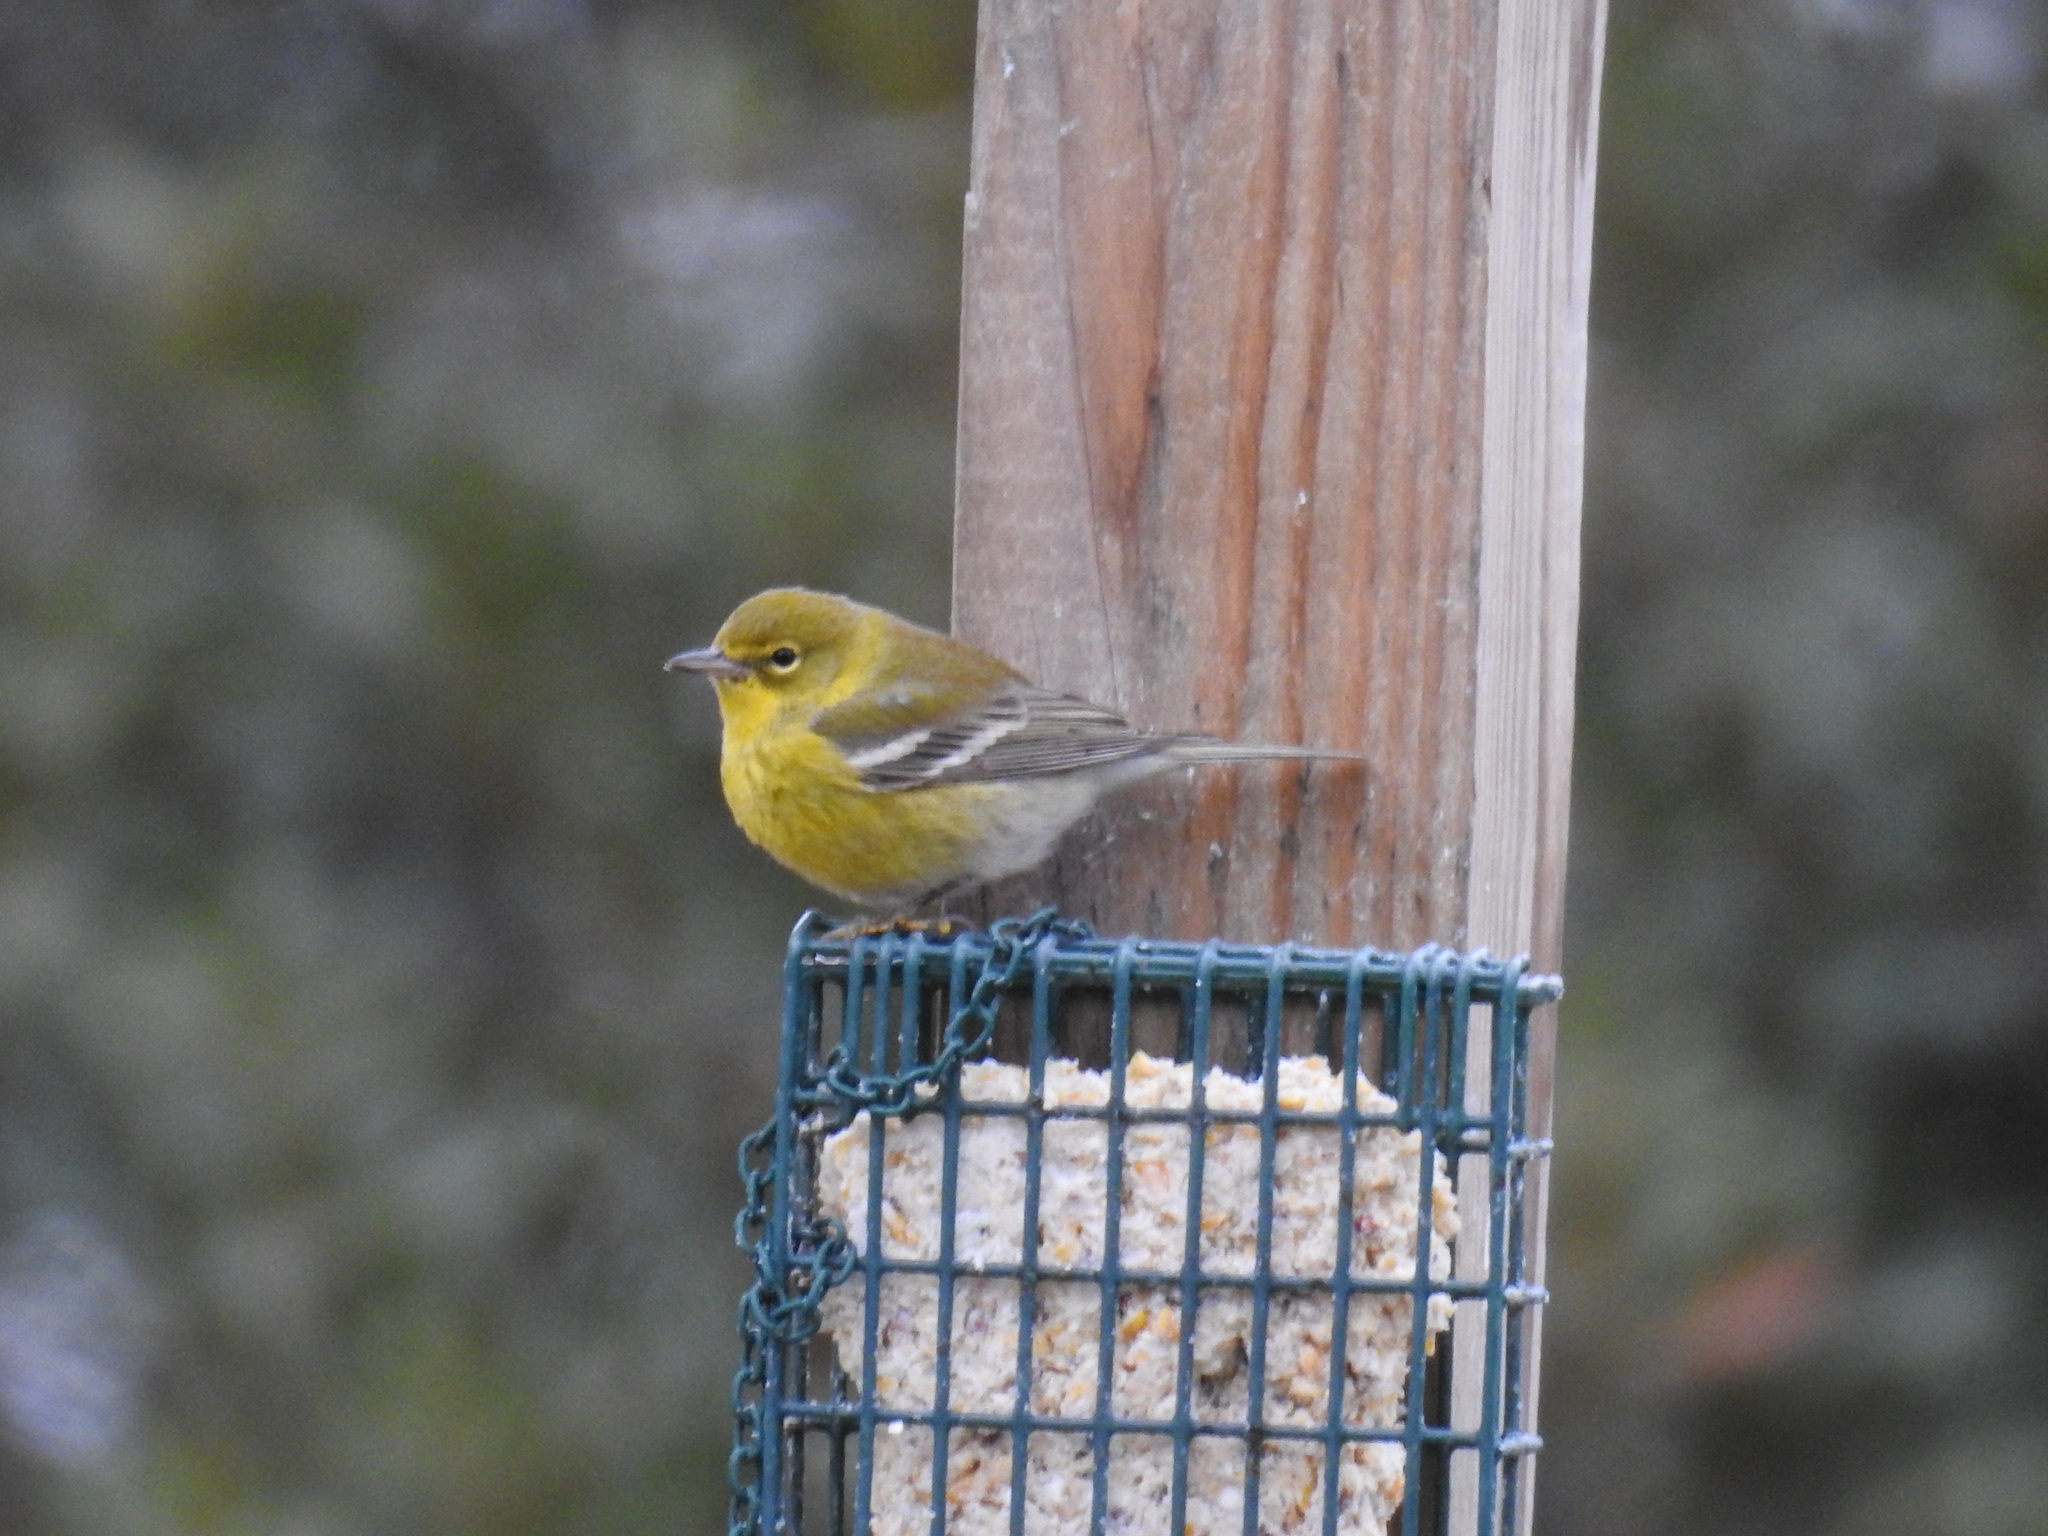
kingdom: Animalia
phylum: Chordata
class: Aves
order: Passeriformes
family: Parulidae
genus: Setophaga
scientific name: Setophaga pinus
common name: Pine warbler
